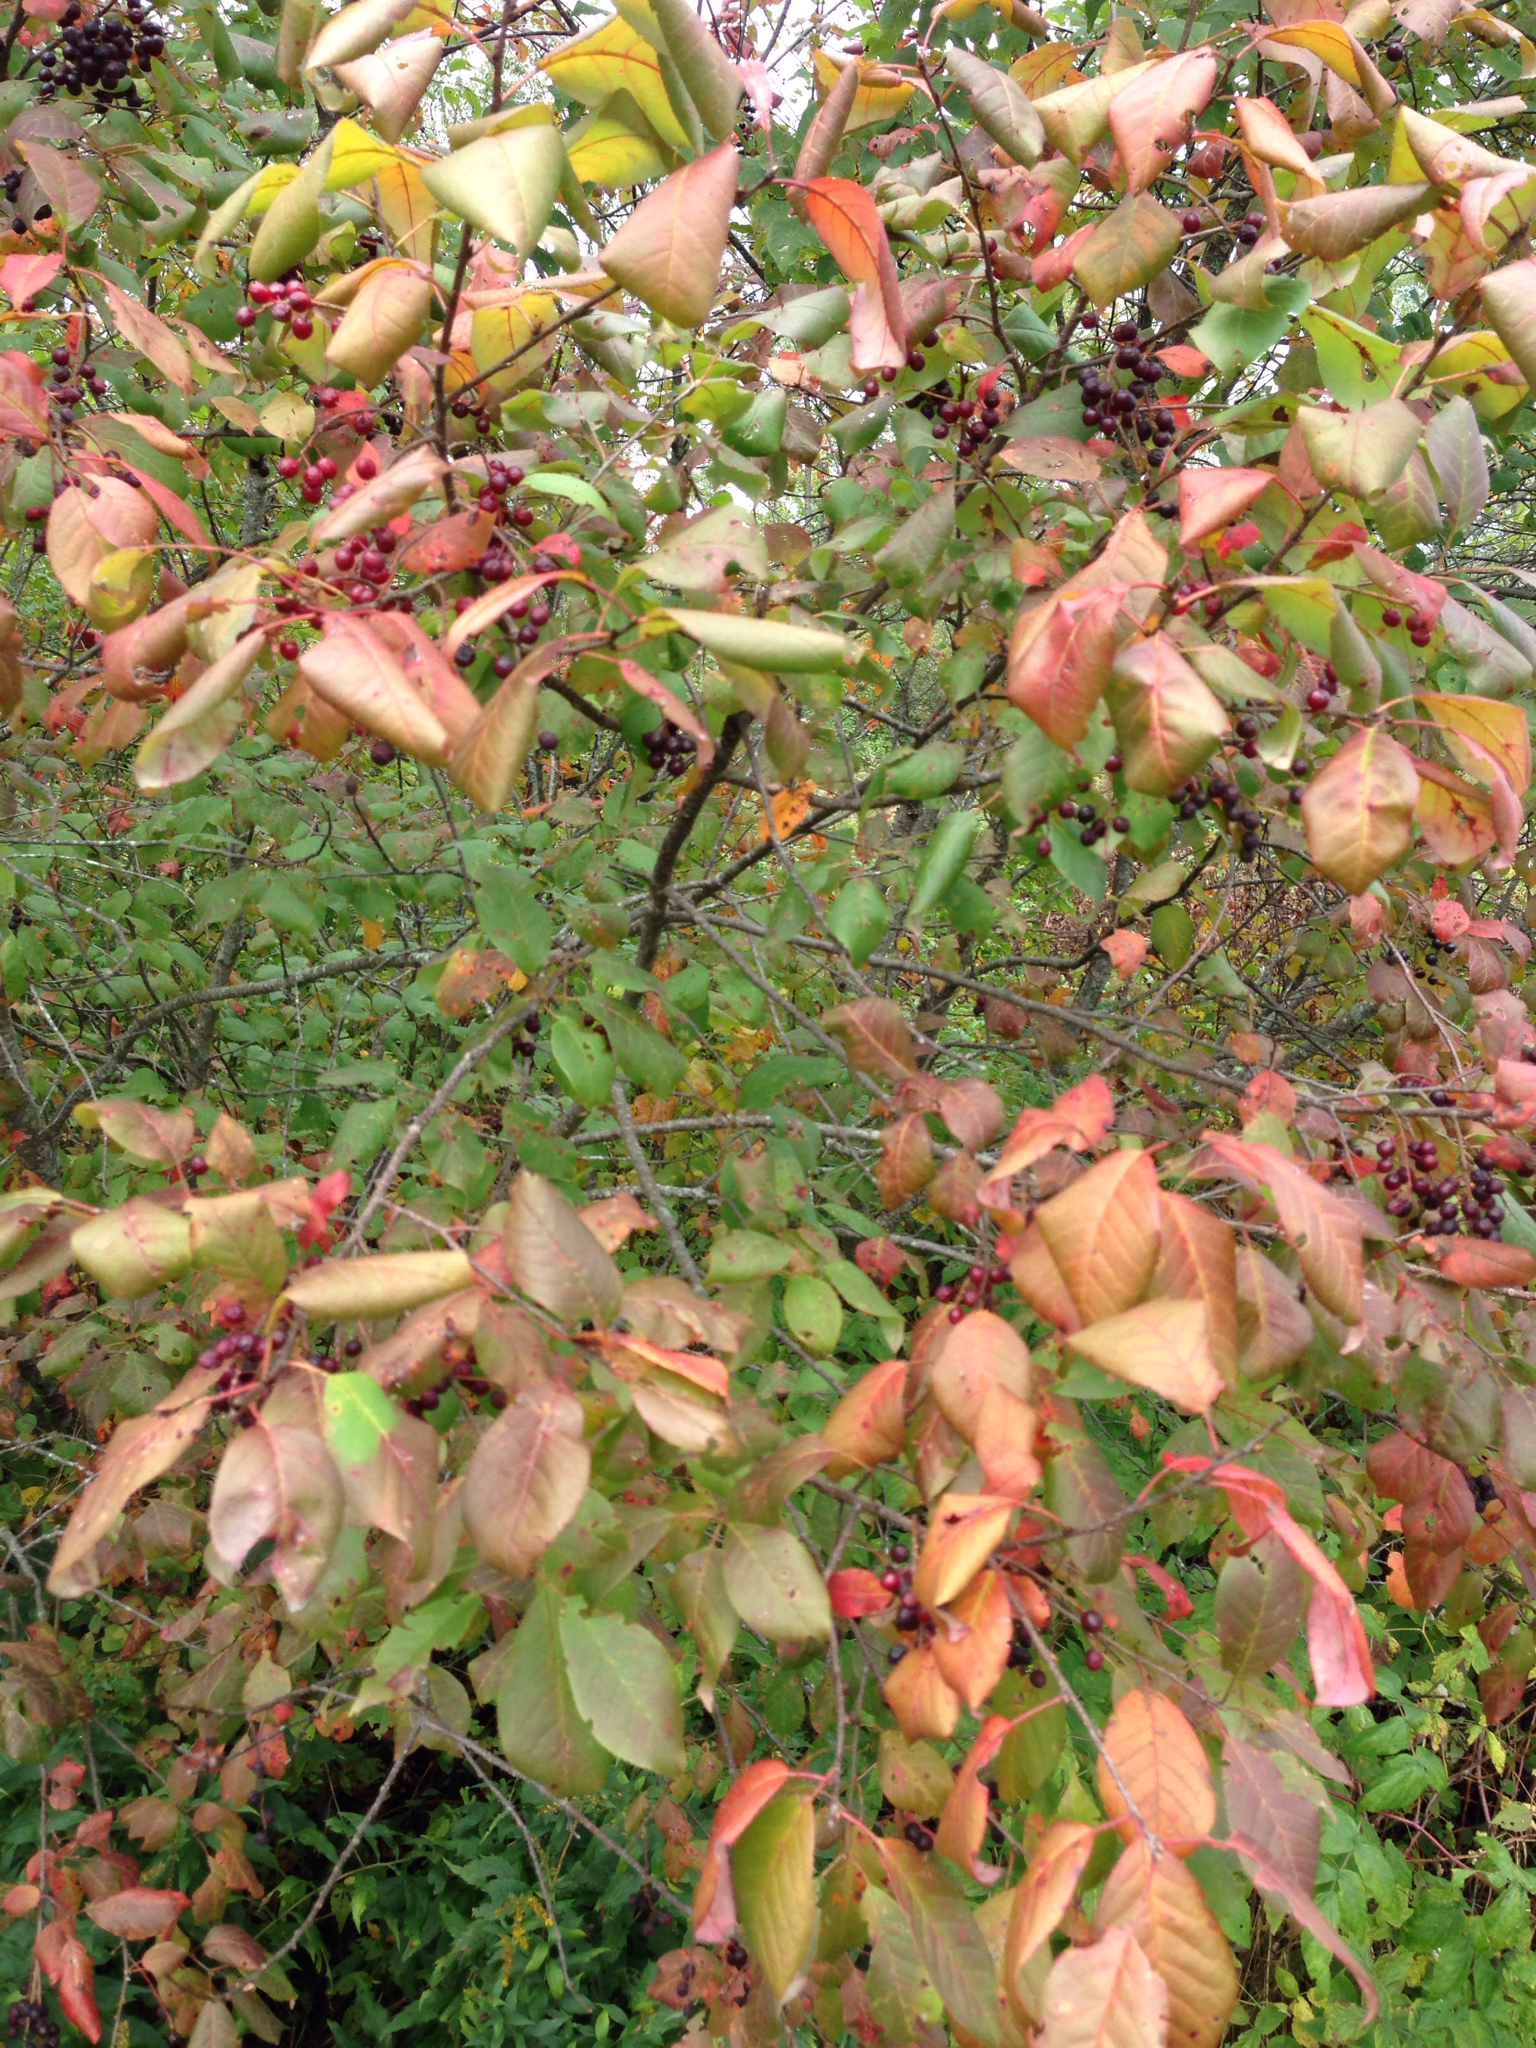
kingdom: Plantae
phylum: Tracheophyta
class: Magnoliopsida
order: Rosales
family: Rosaceae
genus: Prunus
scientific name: Prunus virginiana
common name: Chokecherry
